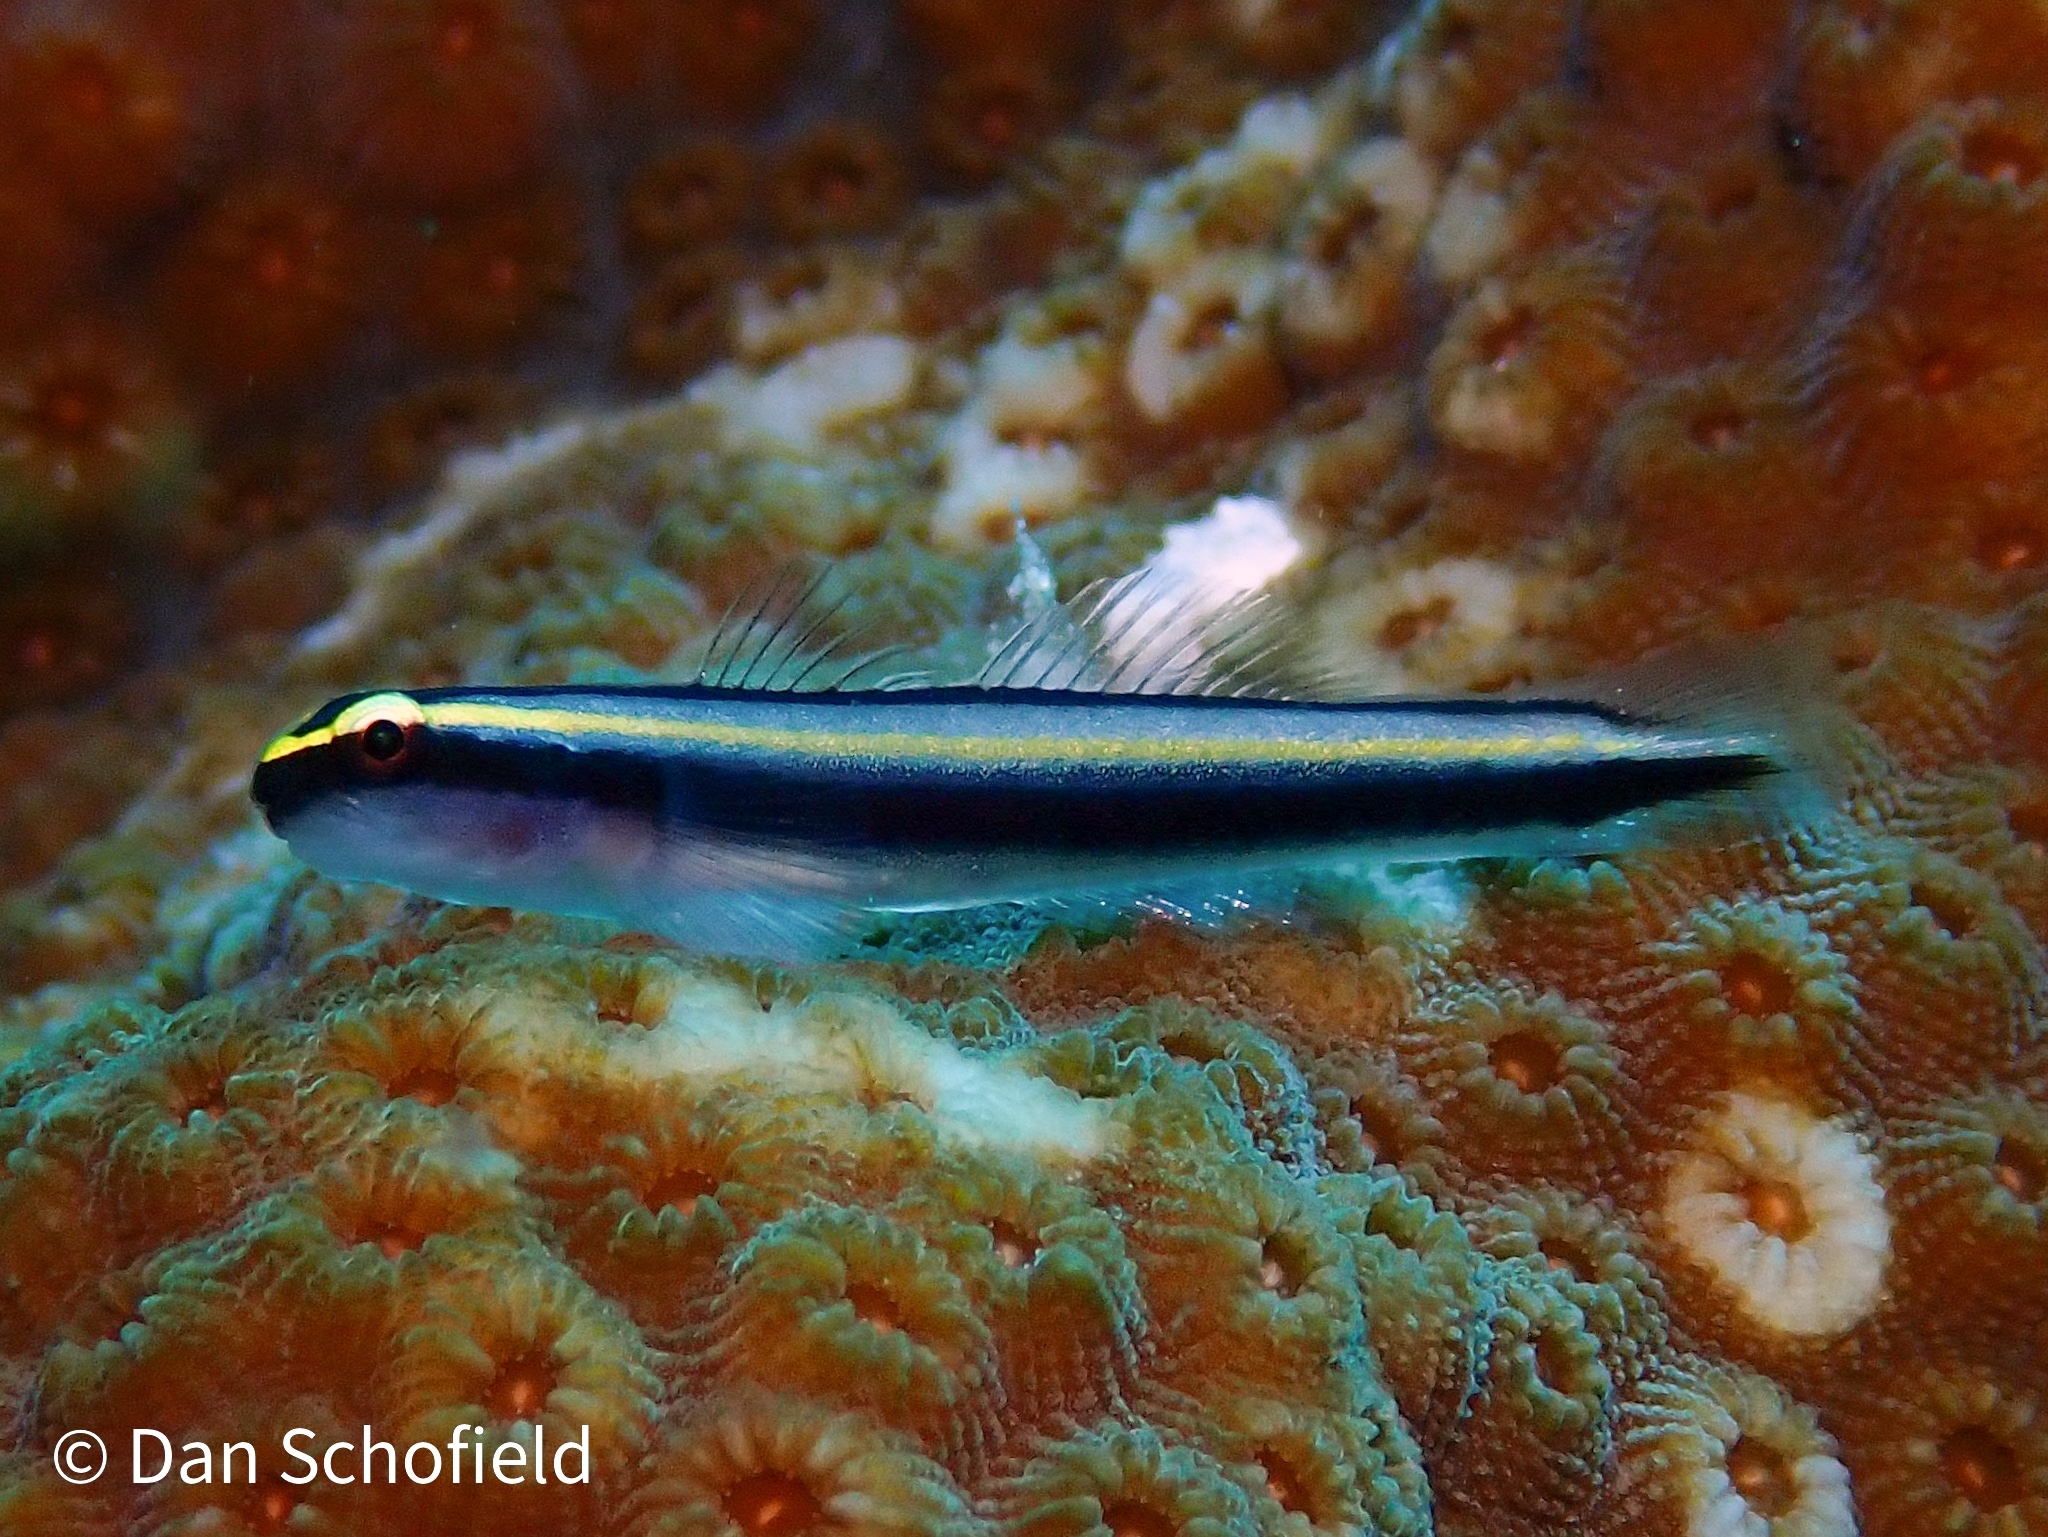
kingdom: Animalia
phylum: Chordata
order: Perciformes
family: Gobiidae
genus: Elacatinus
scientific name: Elacatinus cayman
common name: Cayman cleaner goby
